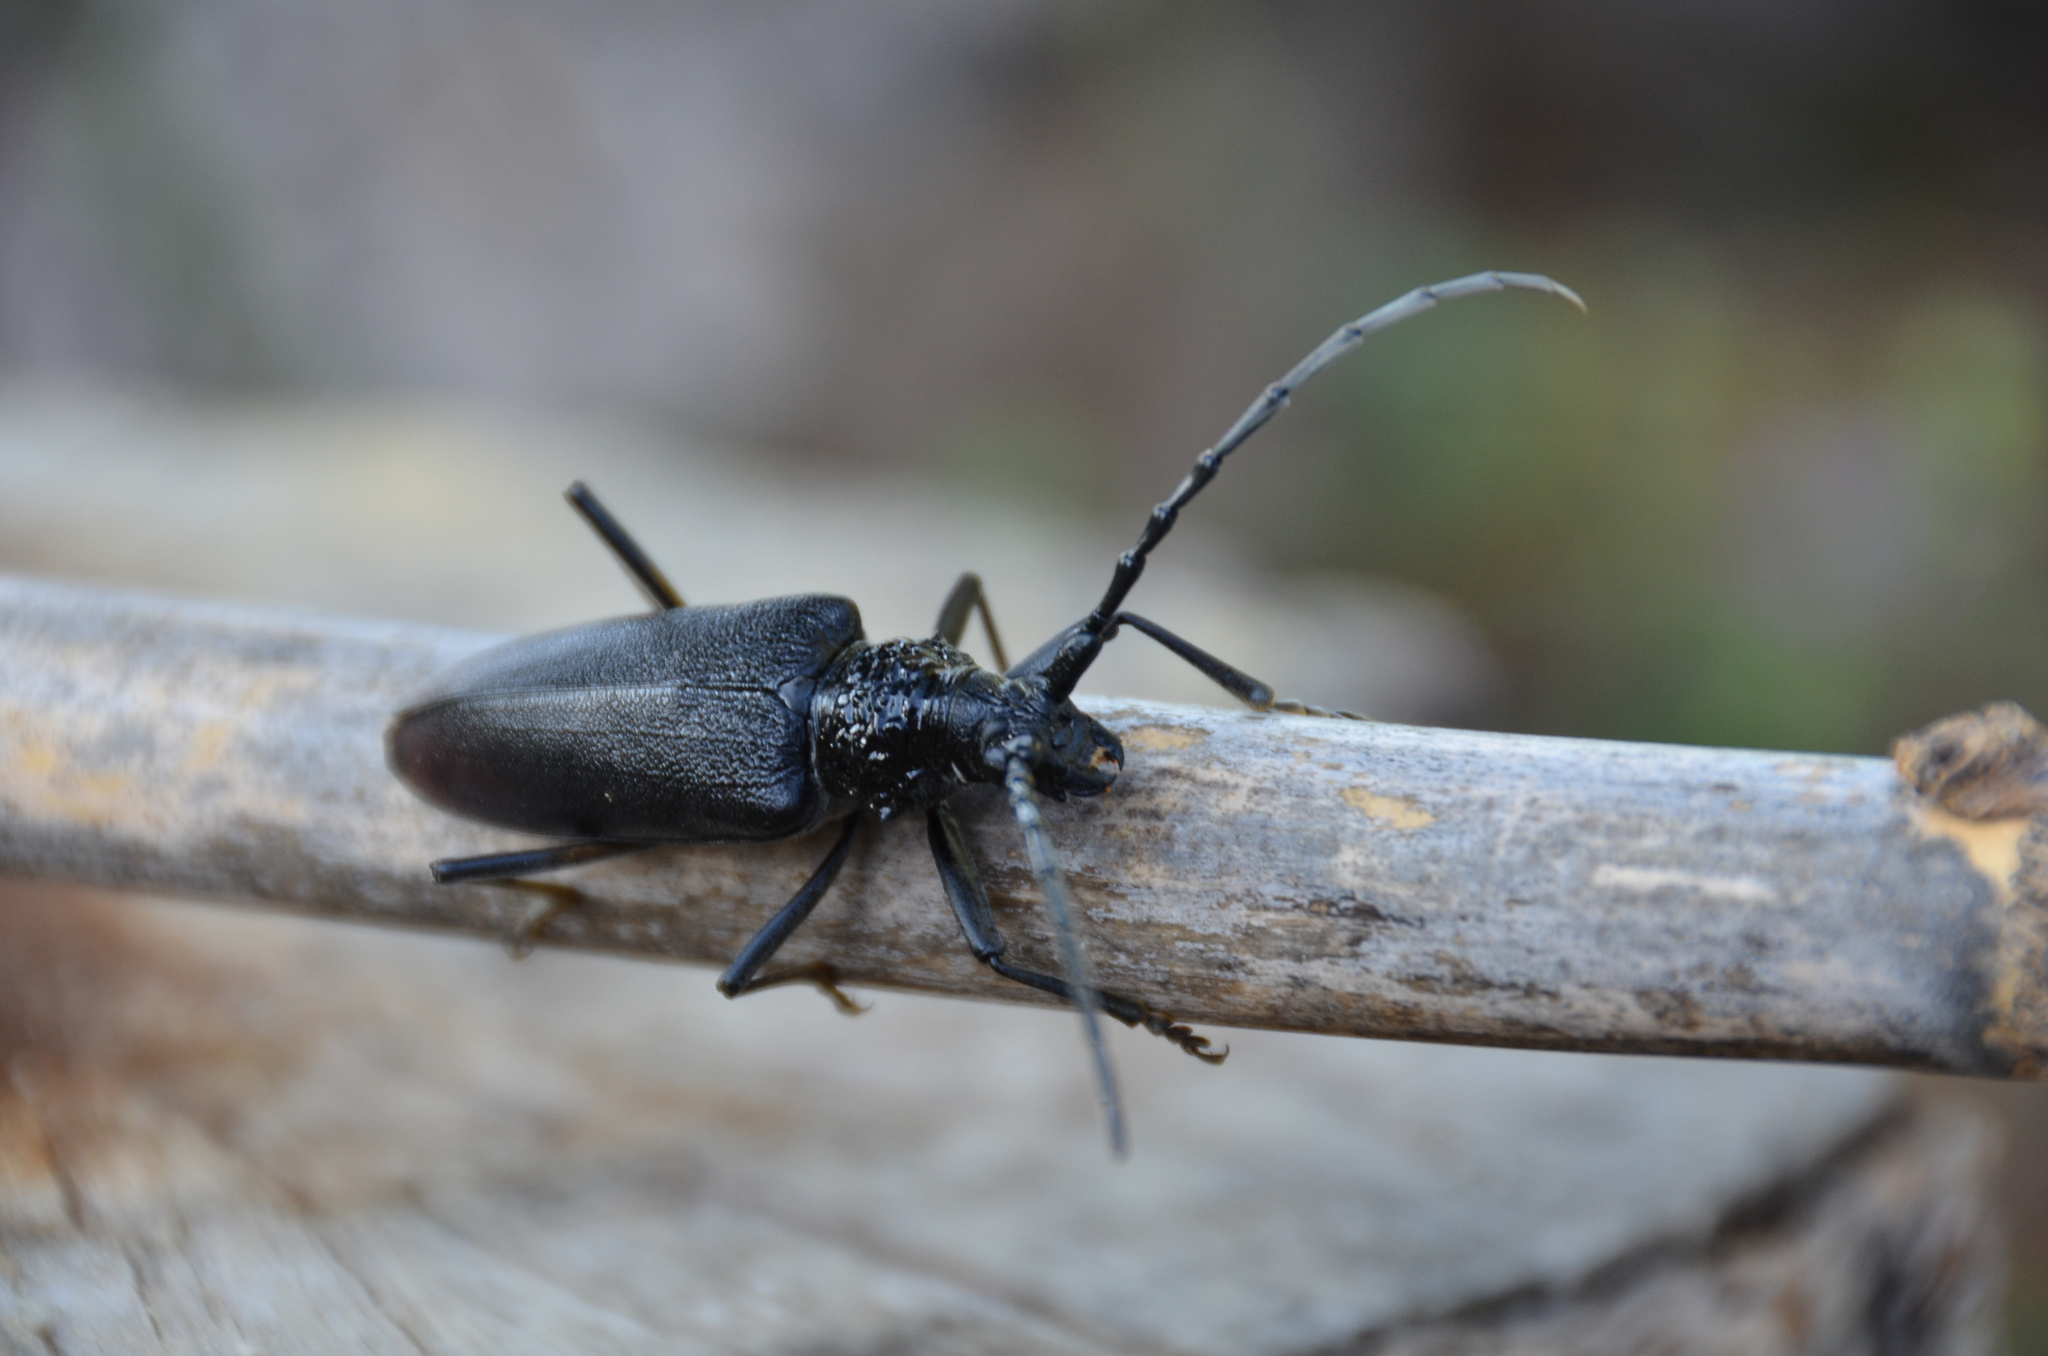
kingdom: Animalia
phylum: Arthropoda
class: Insecta
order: Coleoptera
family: Cerambycidae
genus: Cerambyx
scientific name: Cerambyx cerdo
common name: Cerambyx longicorn
